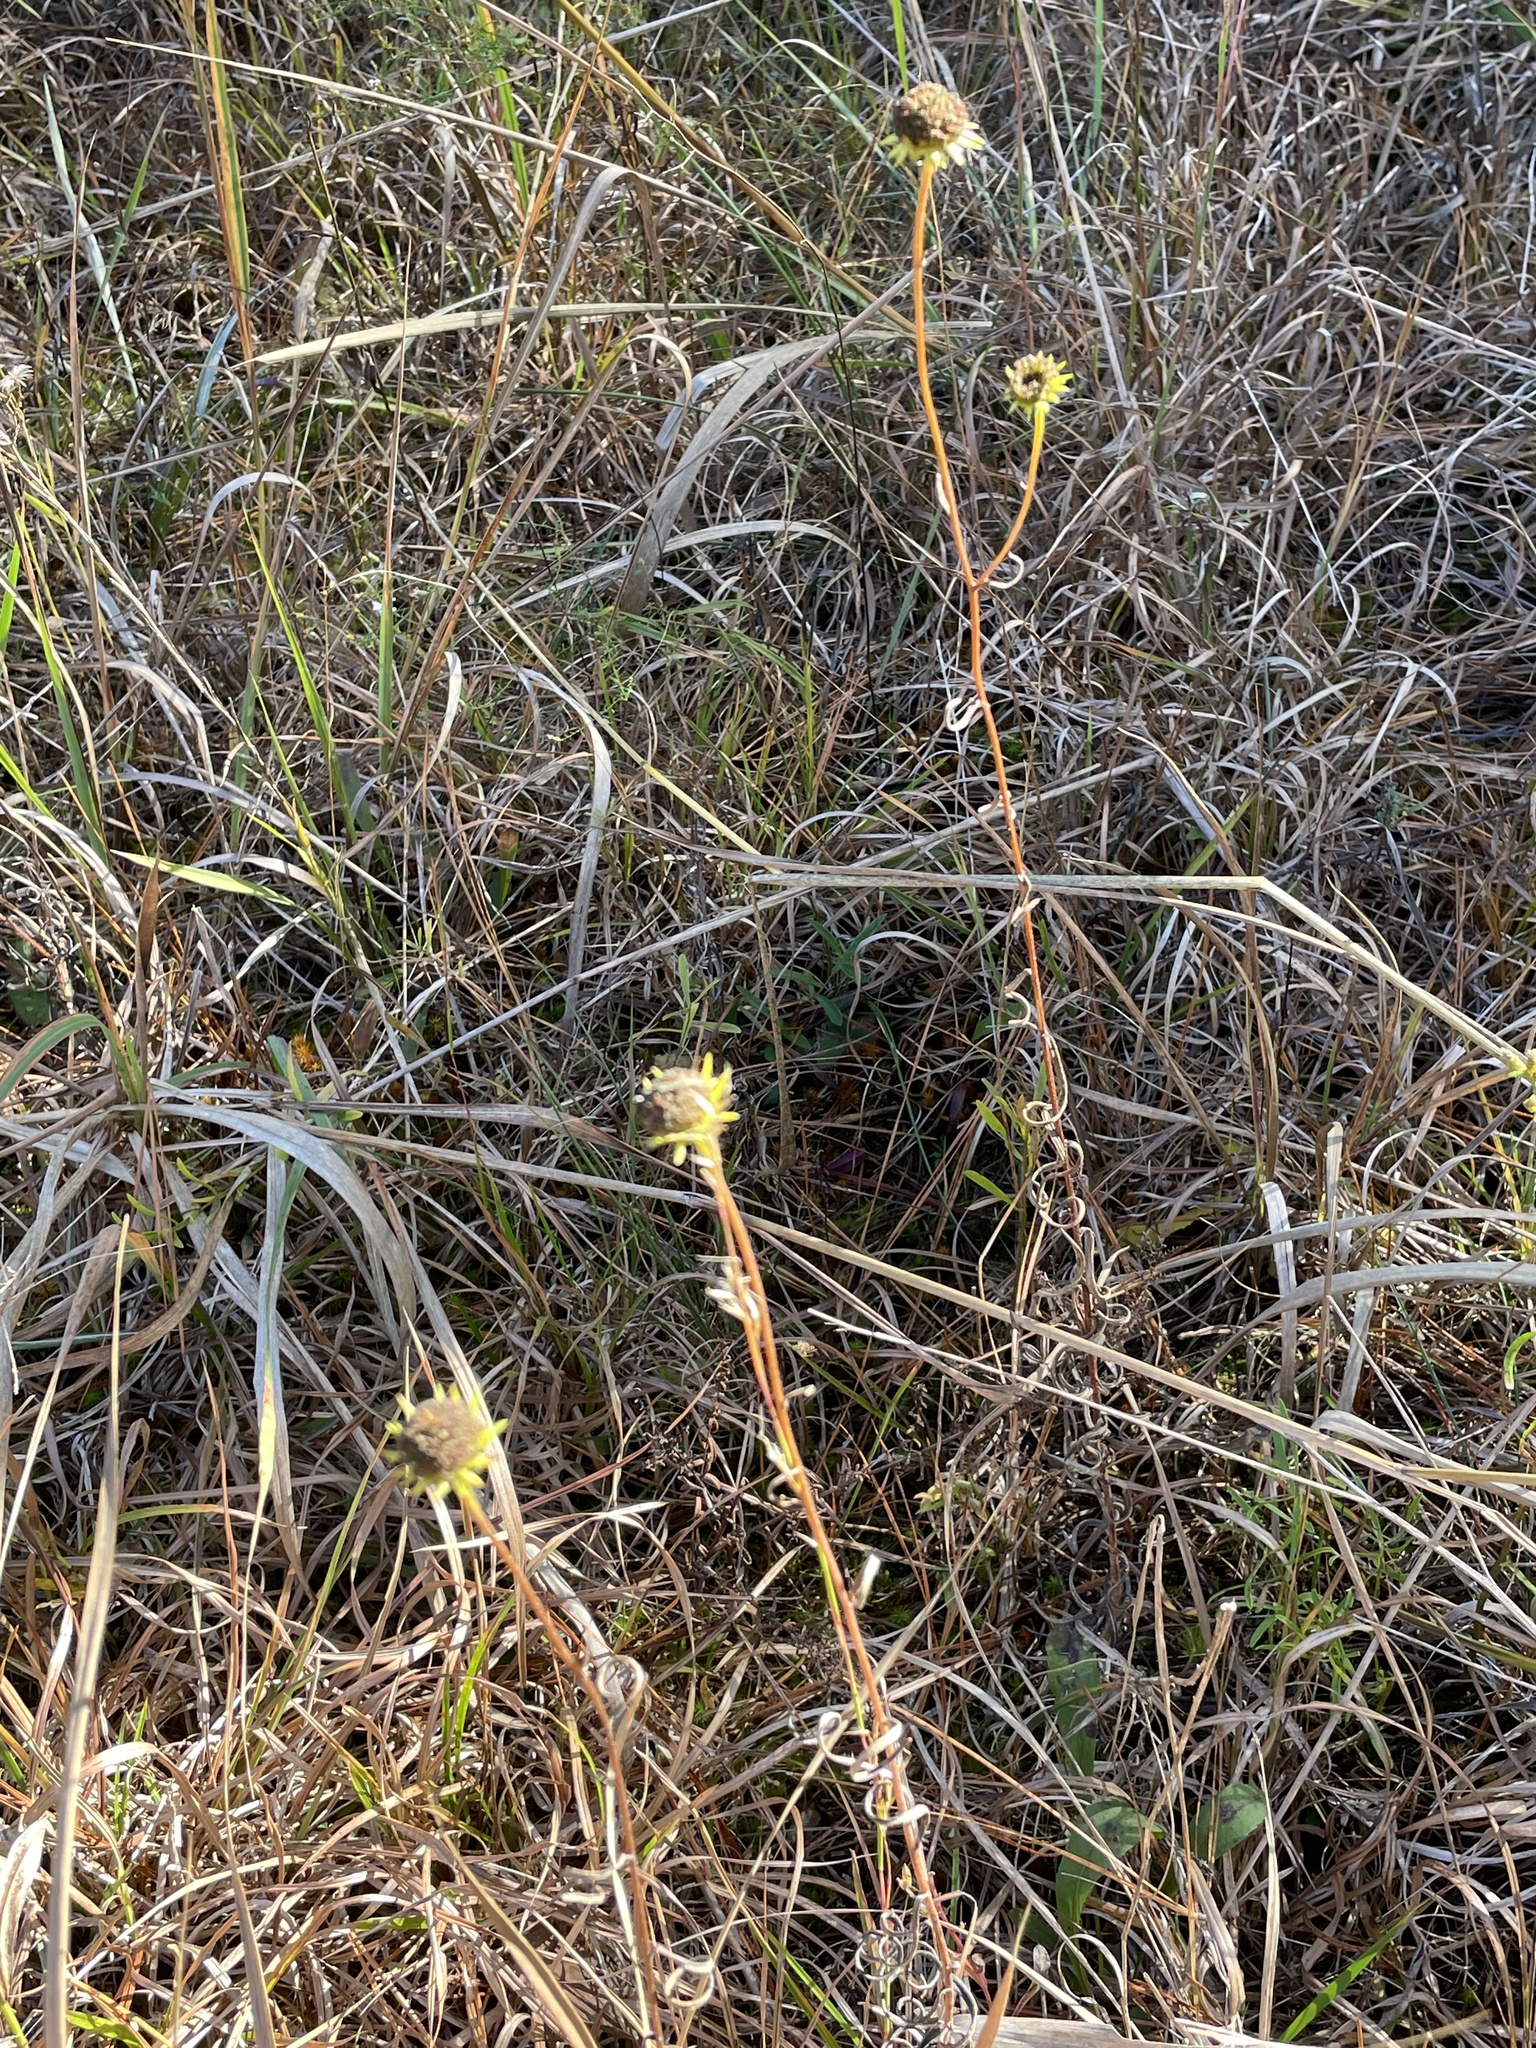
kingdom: Plantae
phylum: Tracheophyta
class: Magnoliopsida
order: Asterales
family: Asteraceae
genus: Helianthus
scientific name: Helianthus angustifolius
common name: Swamp sunflower
